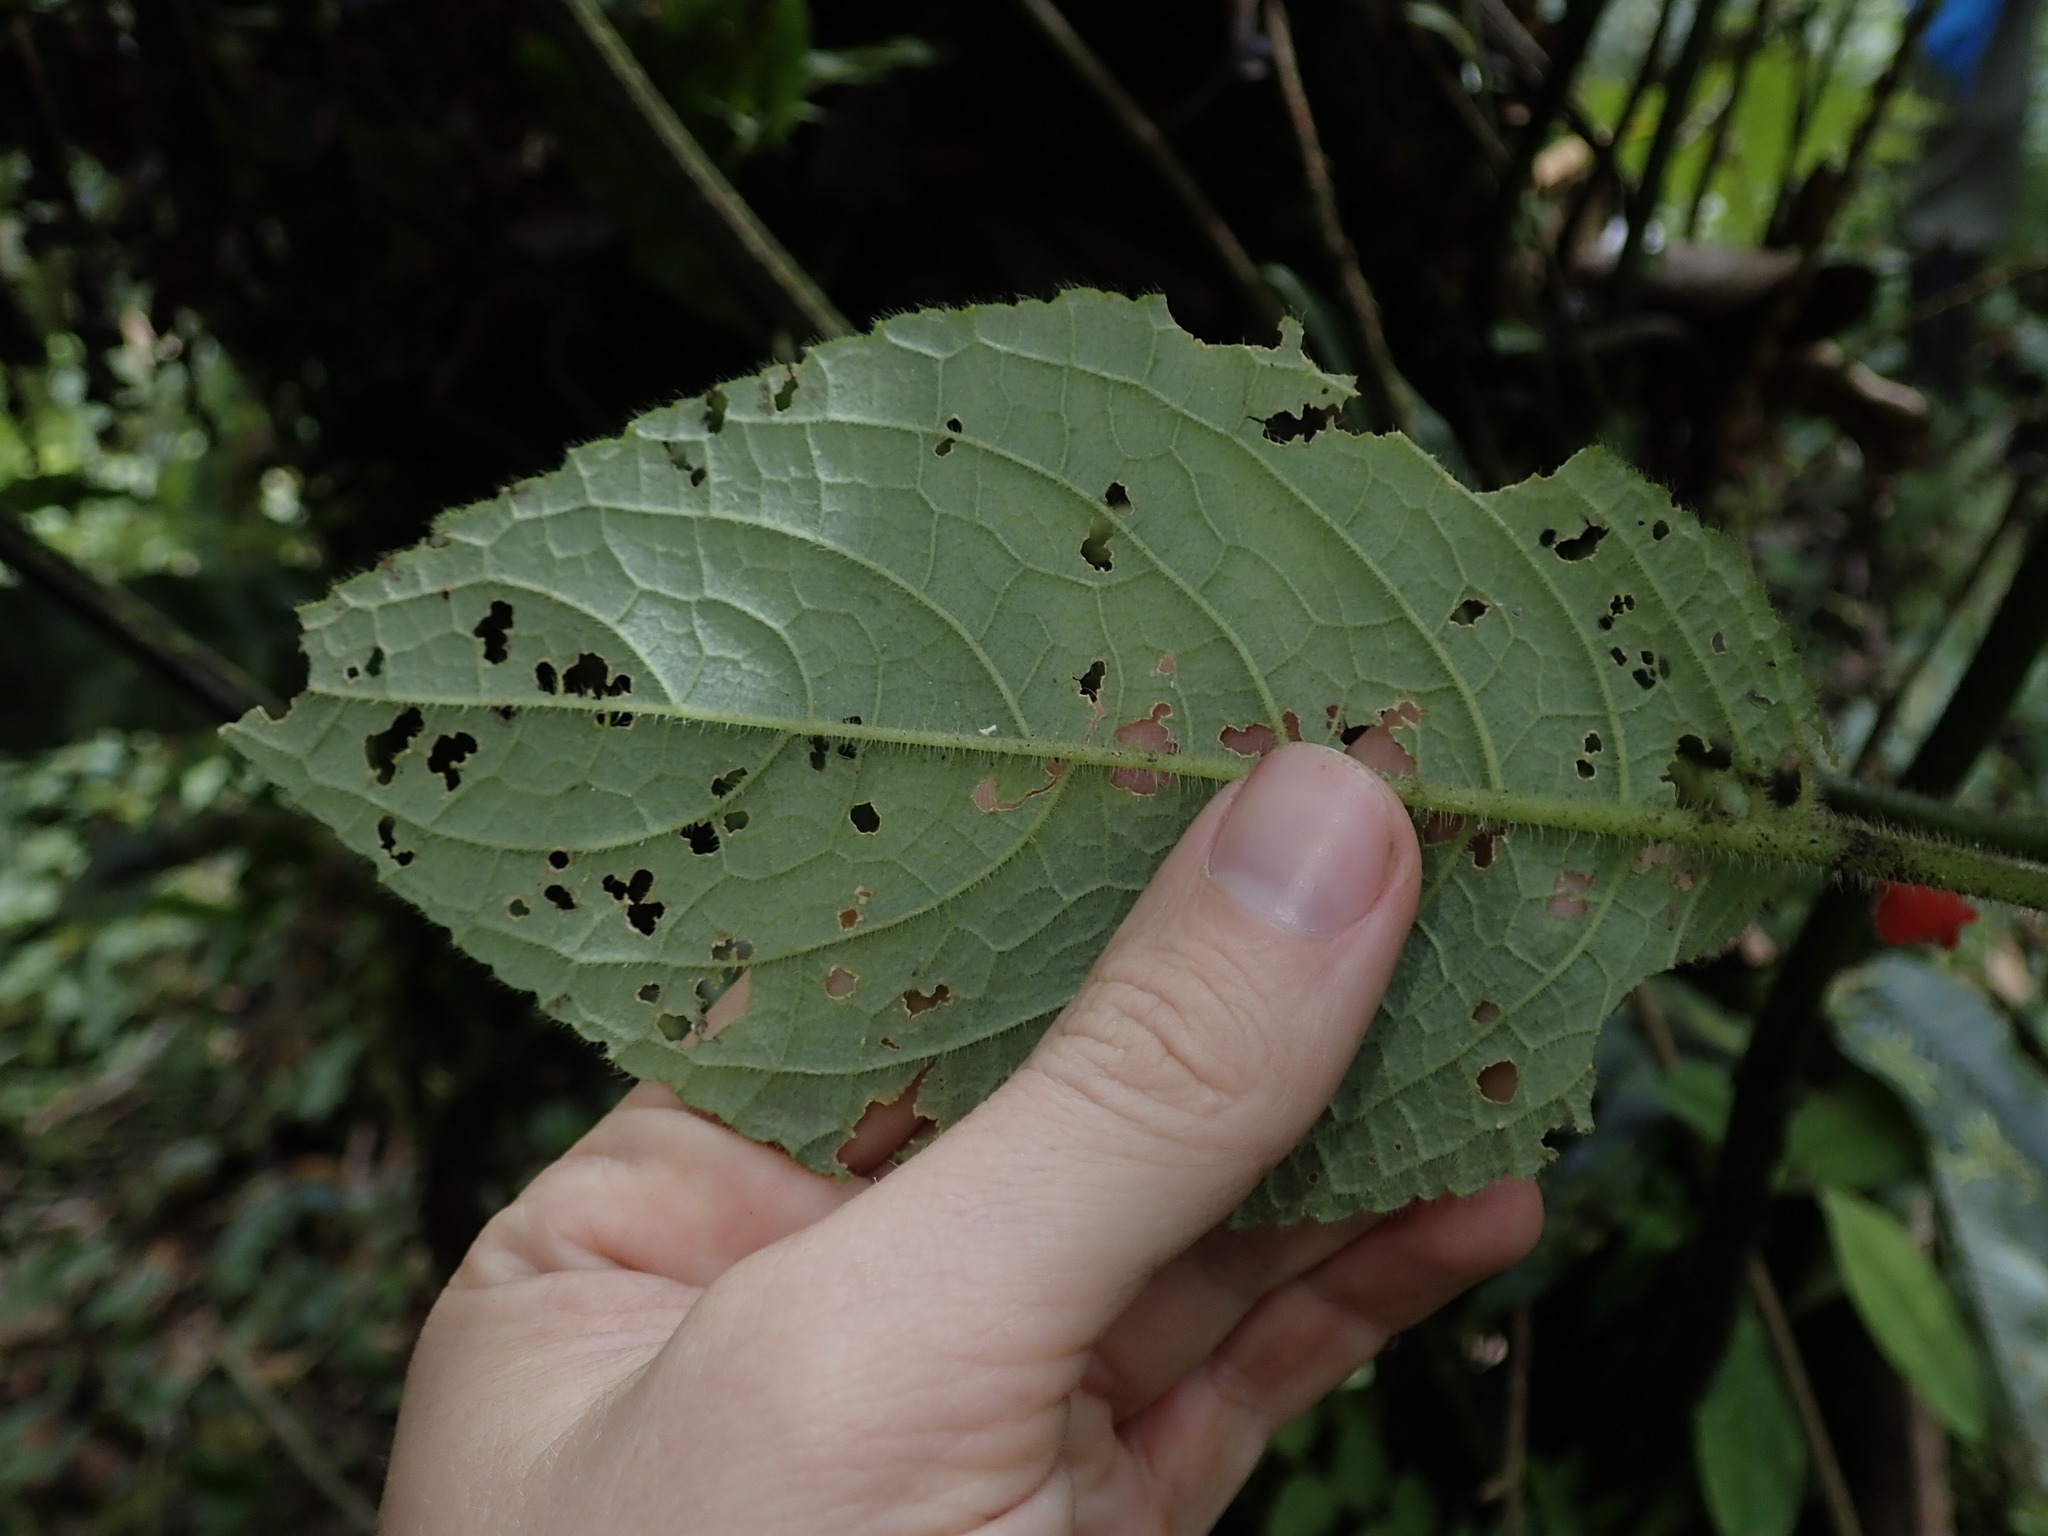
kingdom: Plantae
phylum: Tracheophyta
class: Magnoliopsida
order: Lamiales
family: Gesneriaceae
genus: Drymonia
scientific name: Drymonia teuscheri
